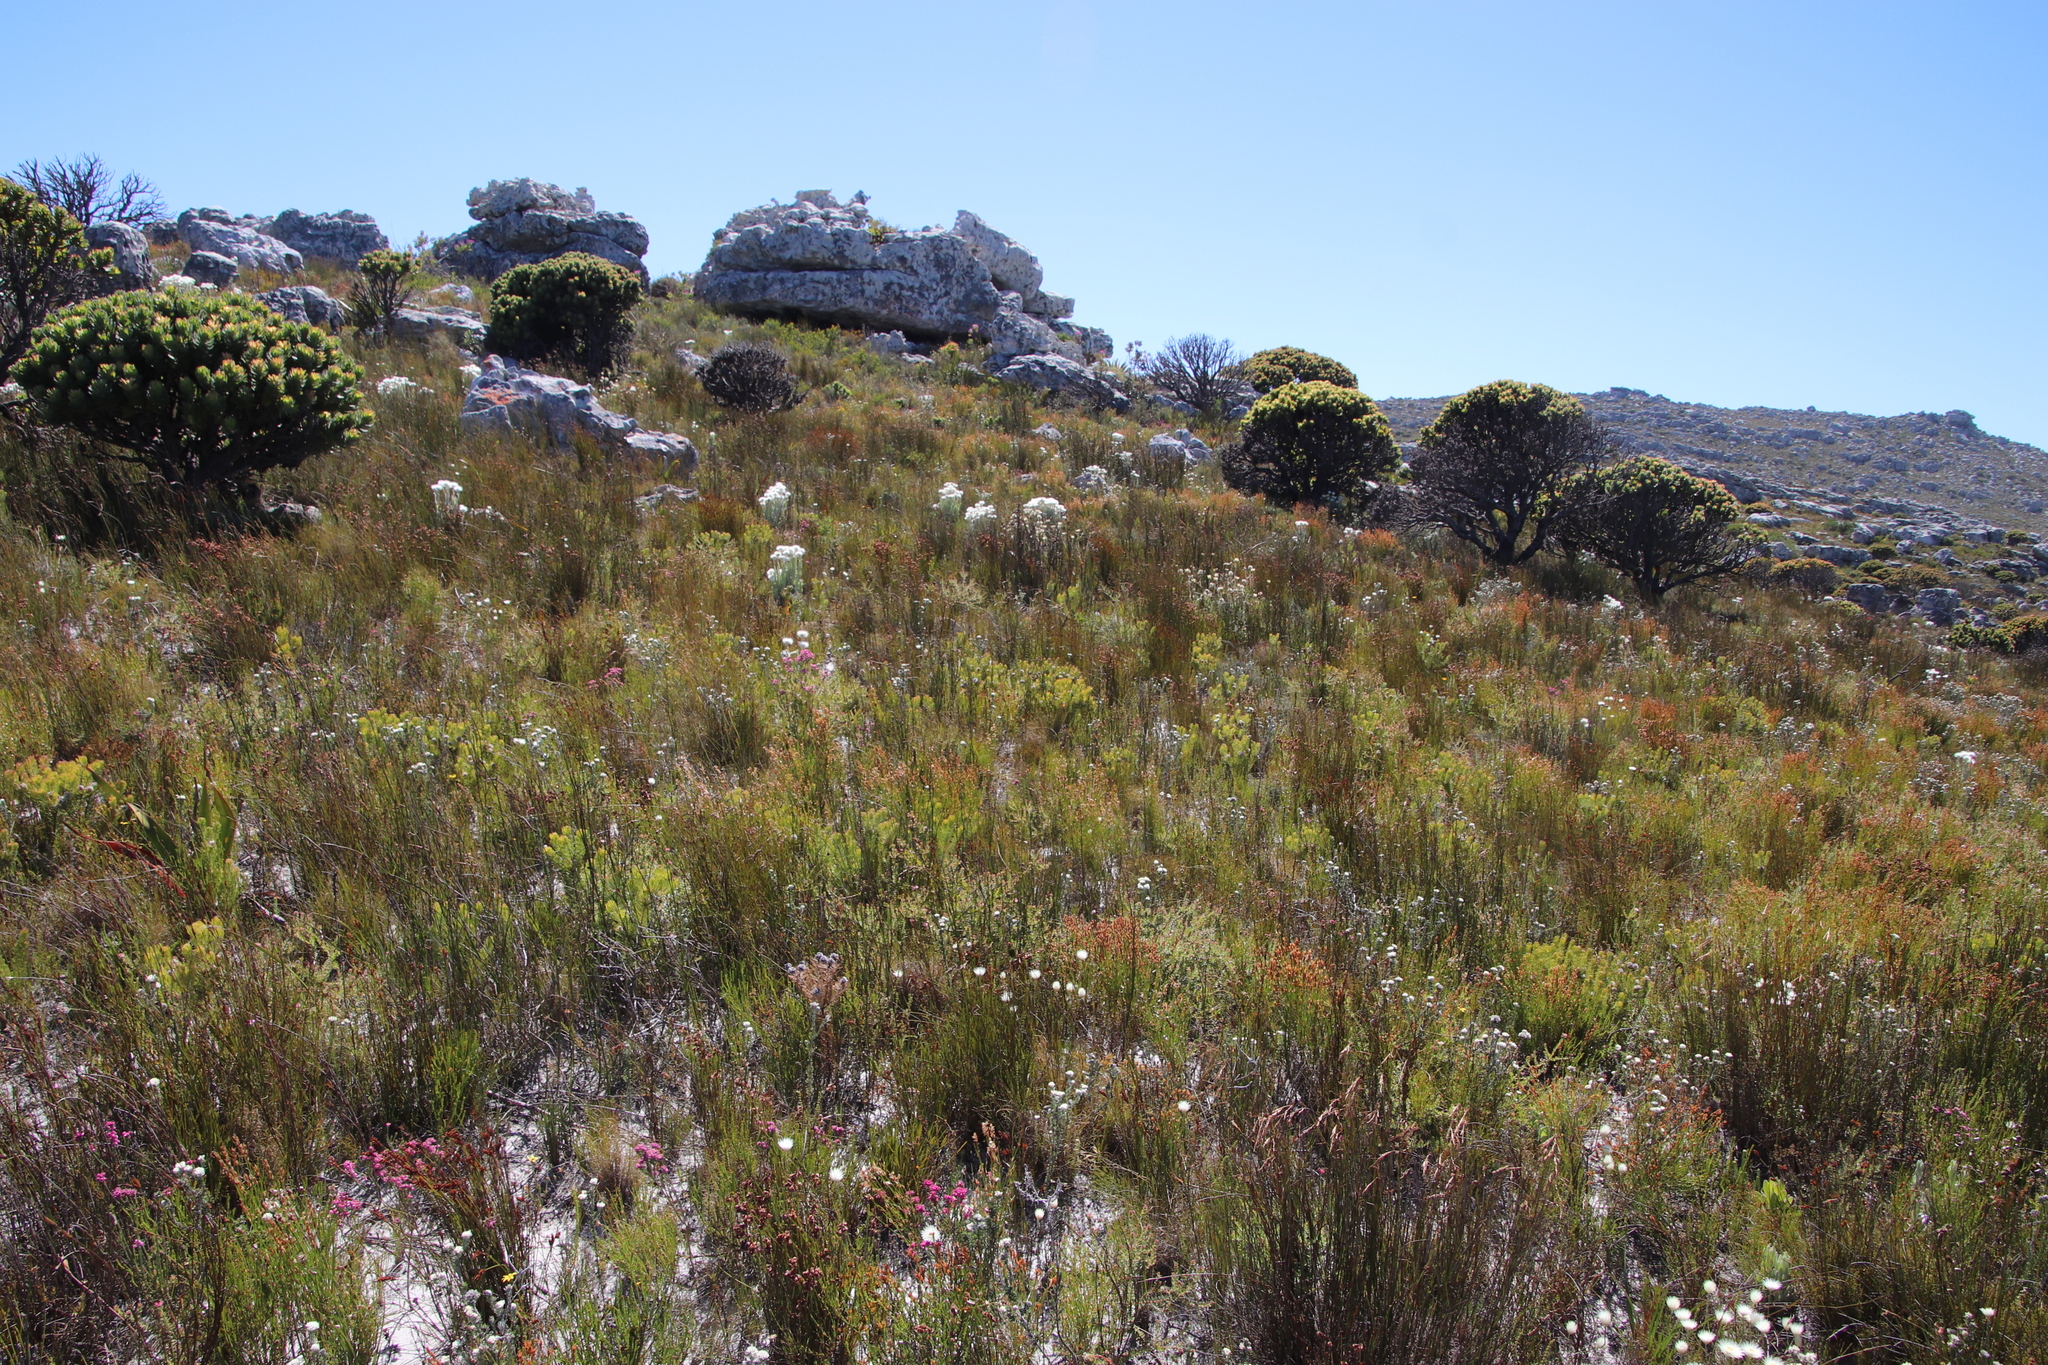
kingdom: Plantae
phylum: Tracheophyta
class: Magnoliopsida
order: Proteales
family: Proteaceae
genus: Diastella
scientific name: Diastella divaricata
